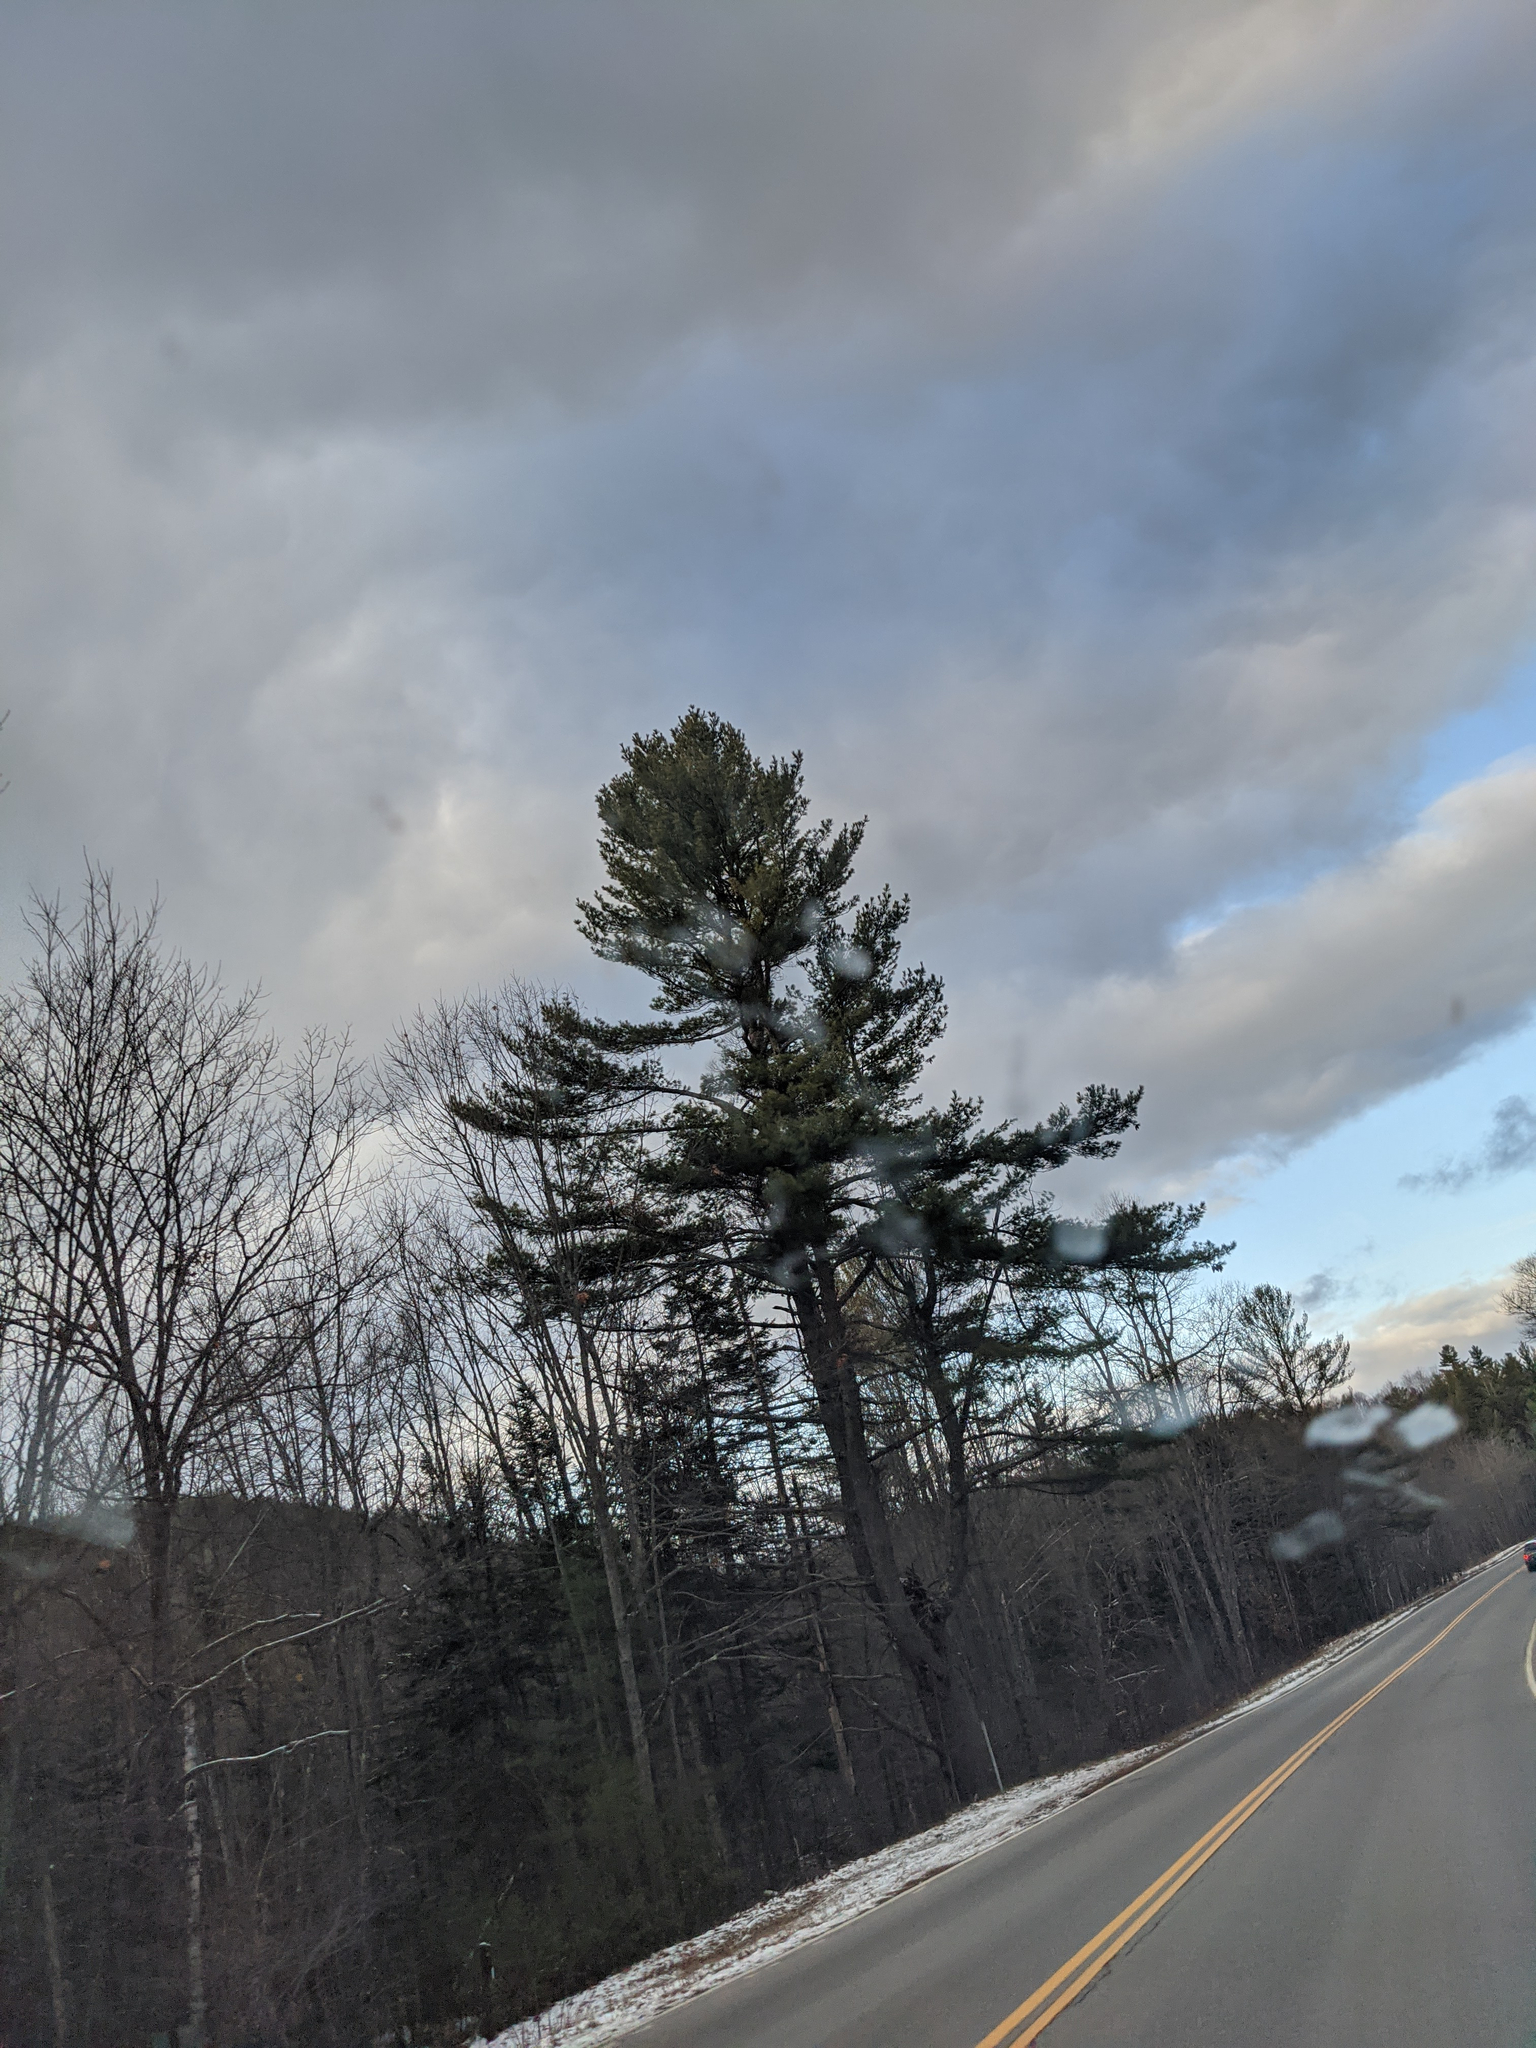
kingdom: Plantae
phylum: Tracheophyta
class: Pinopsida
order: Pinales
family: Pinaceae
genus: Pinus
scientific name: Pinus strobus
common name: Weymouth pine
